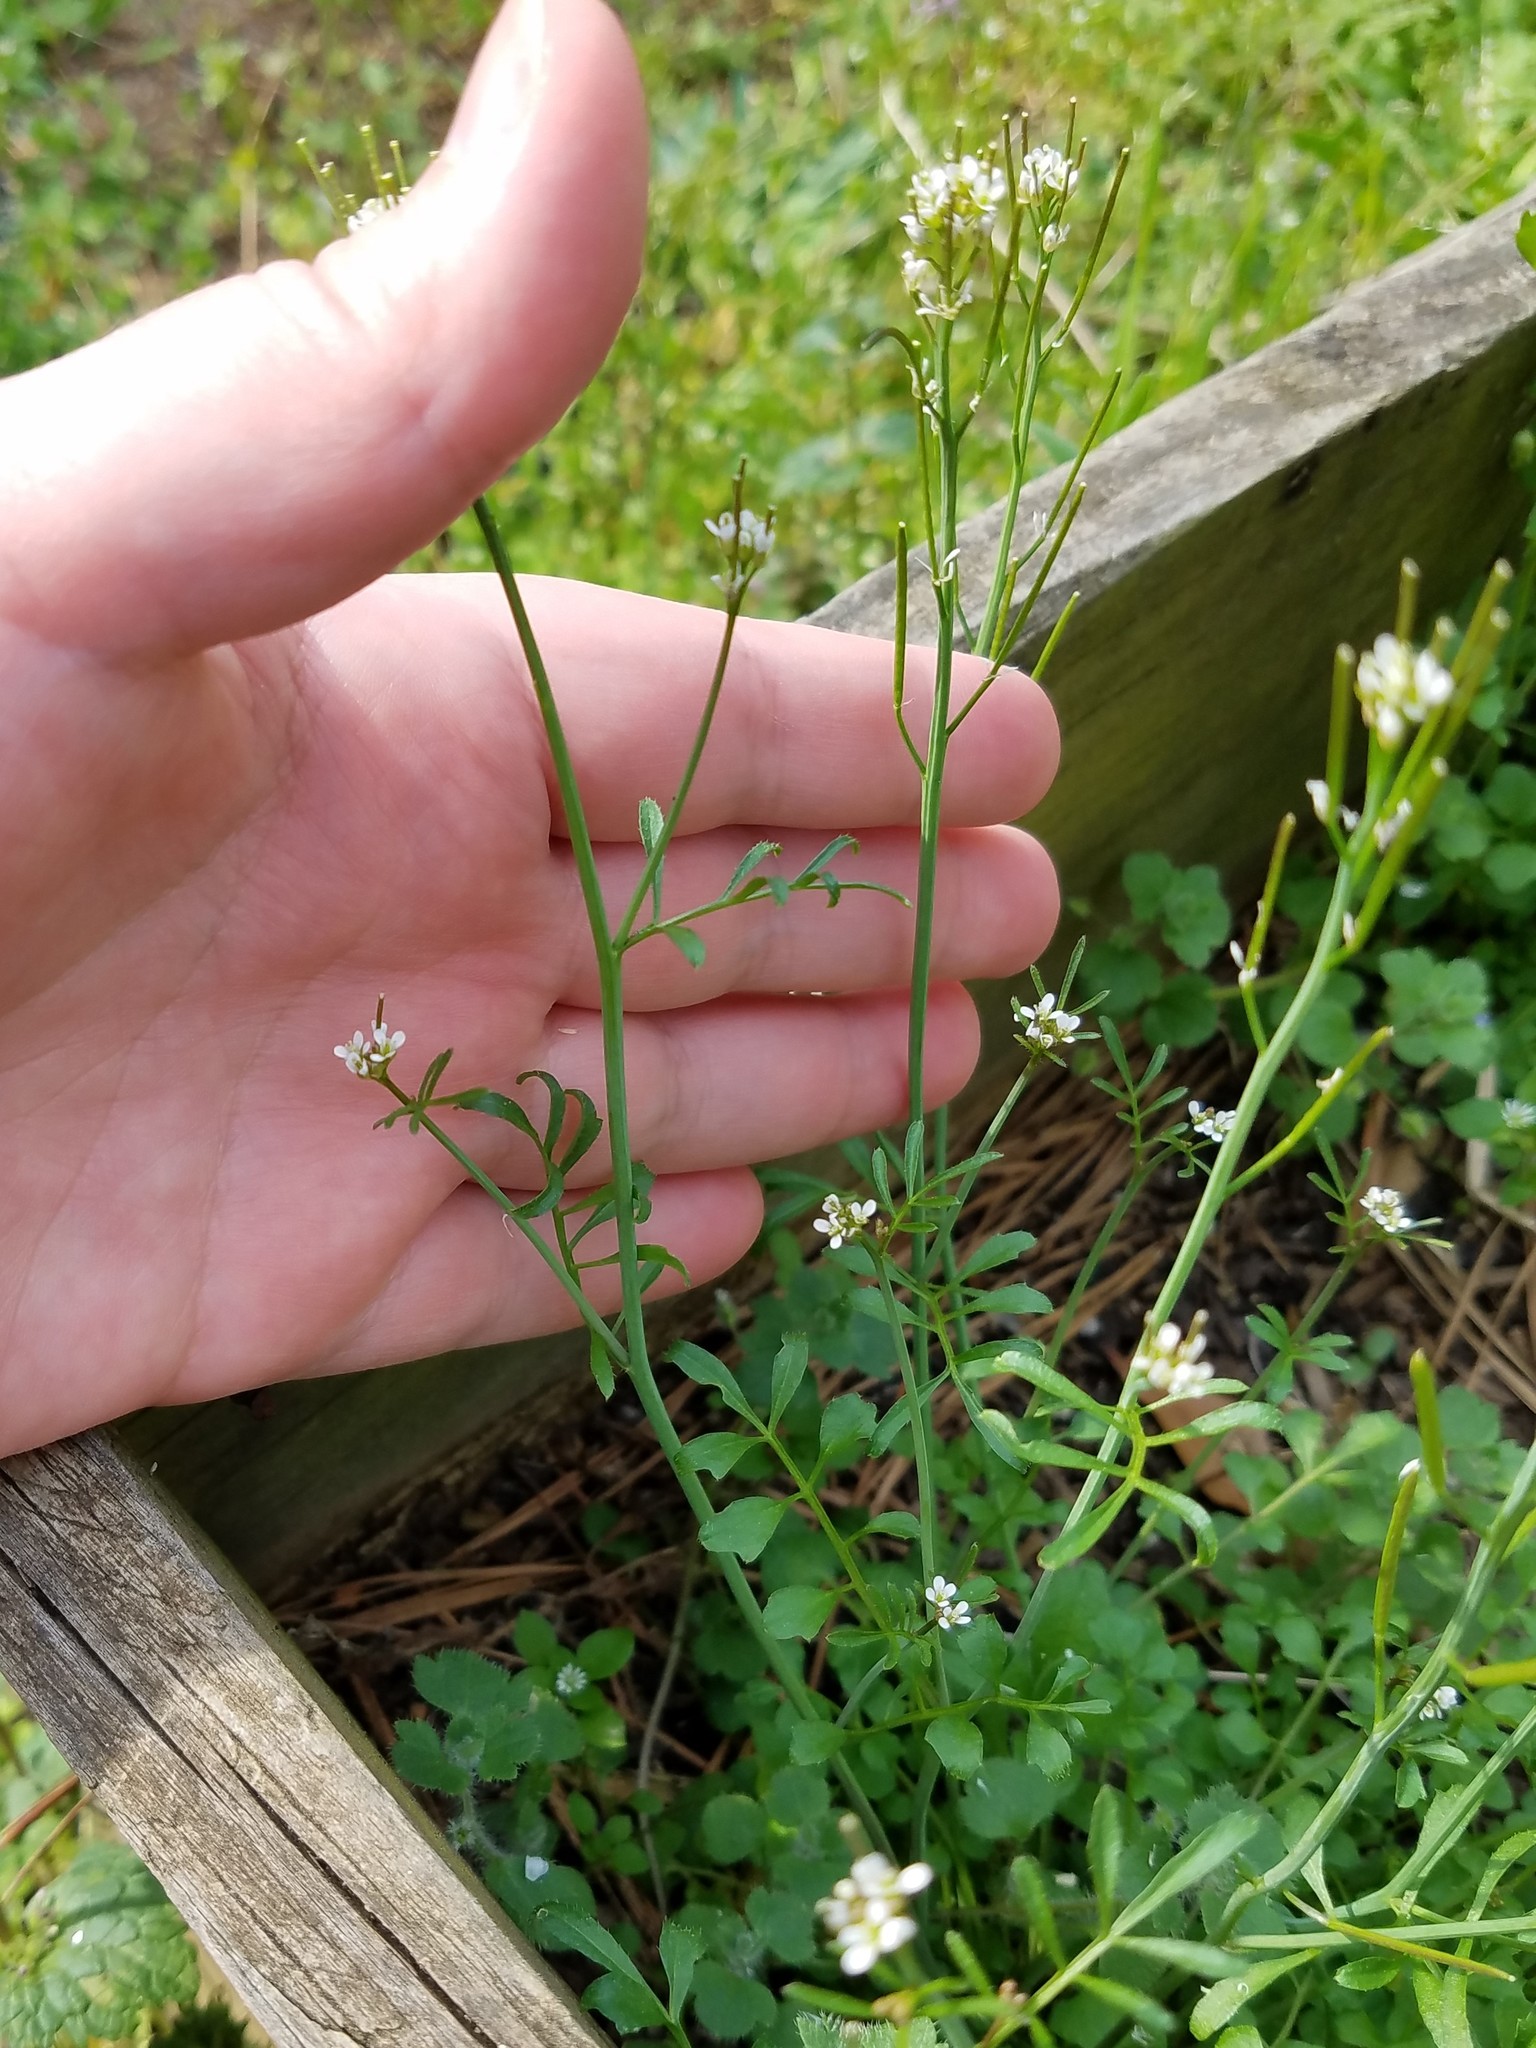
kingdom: Plantae
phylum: Tracheophyta
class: Magnoliopsida
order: Brassicales
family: Brassicaceae
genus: Cardamine
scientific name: Cardamine hirsuta
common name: Hairy bittercress
